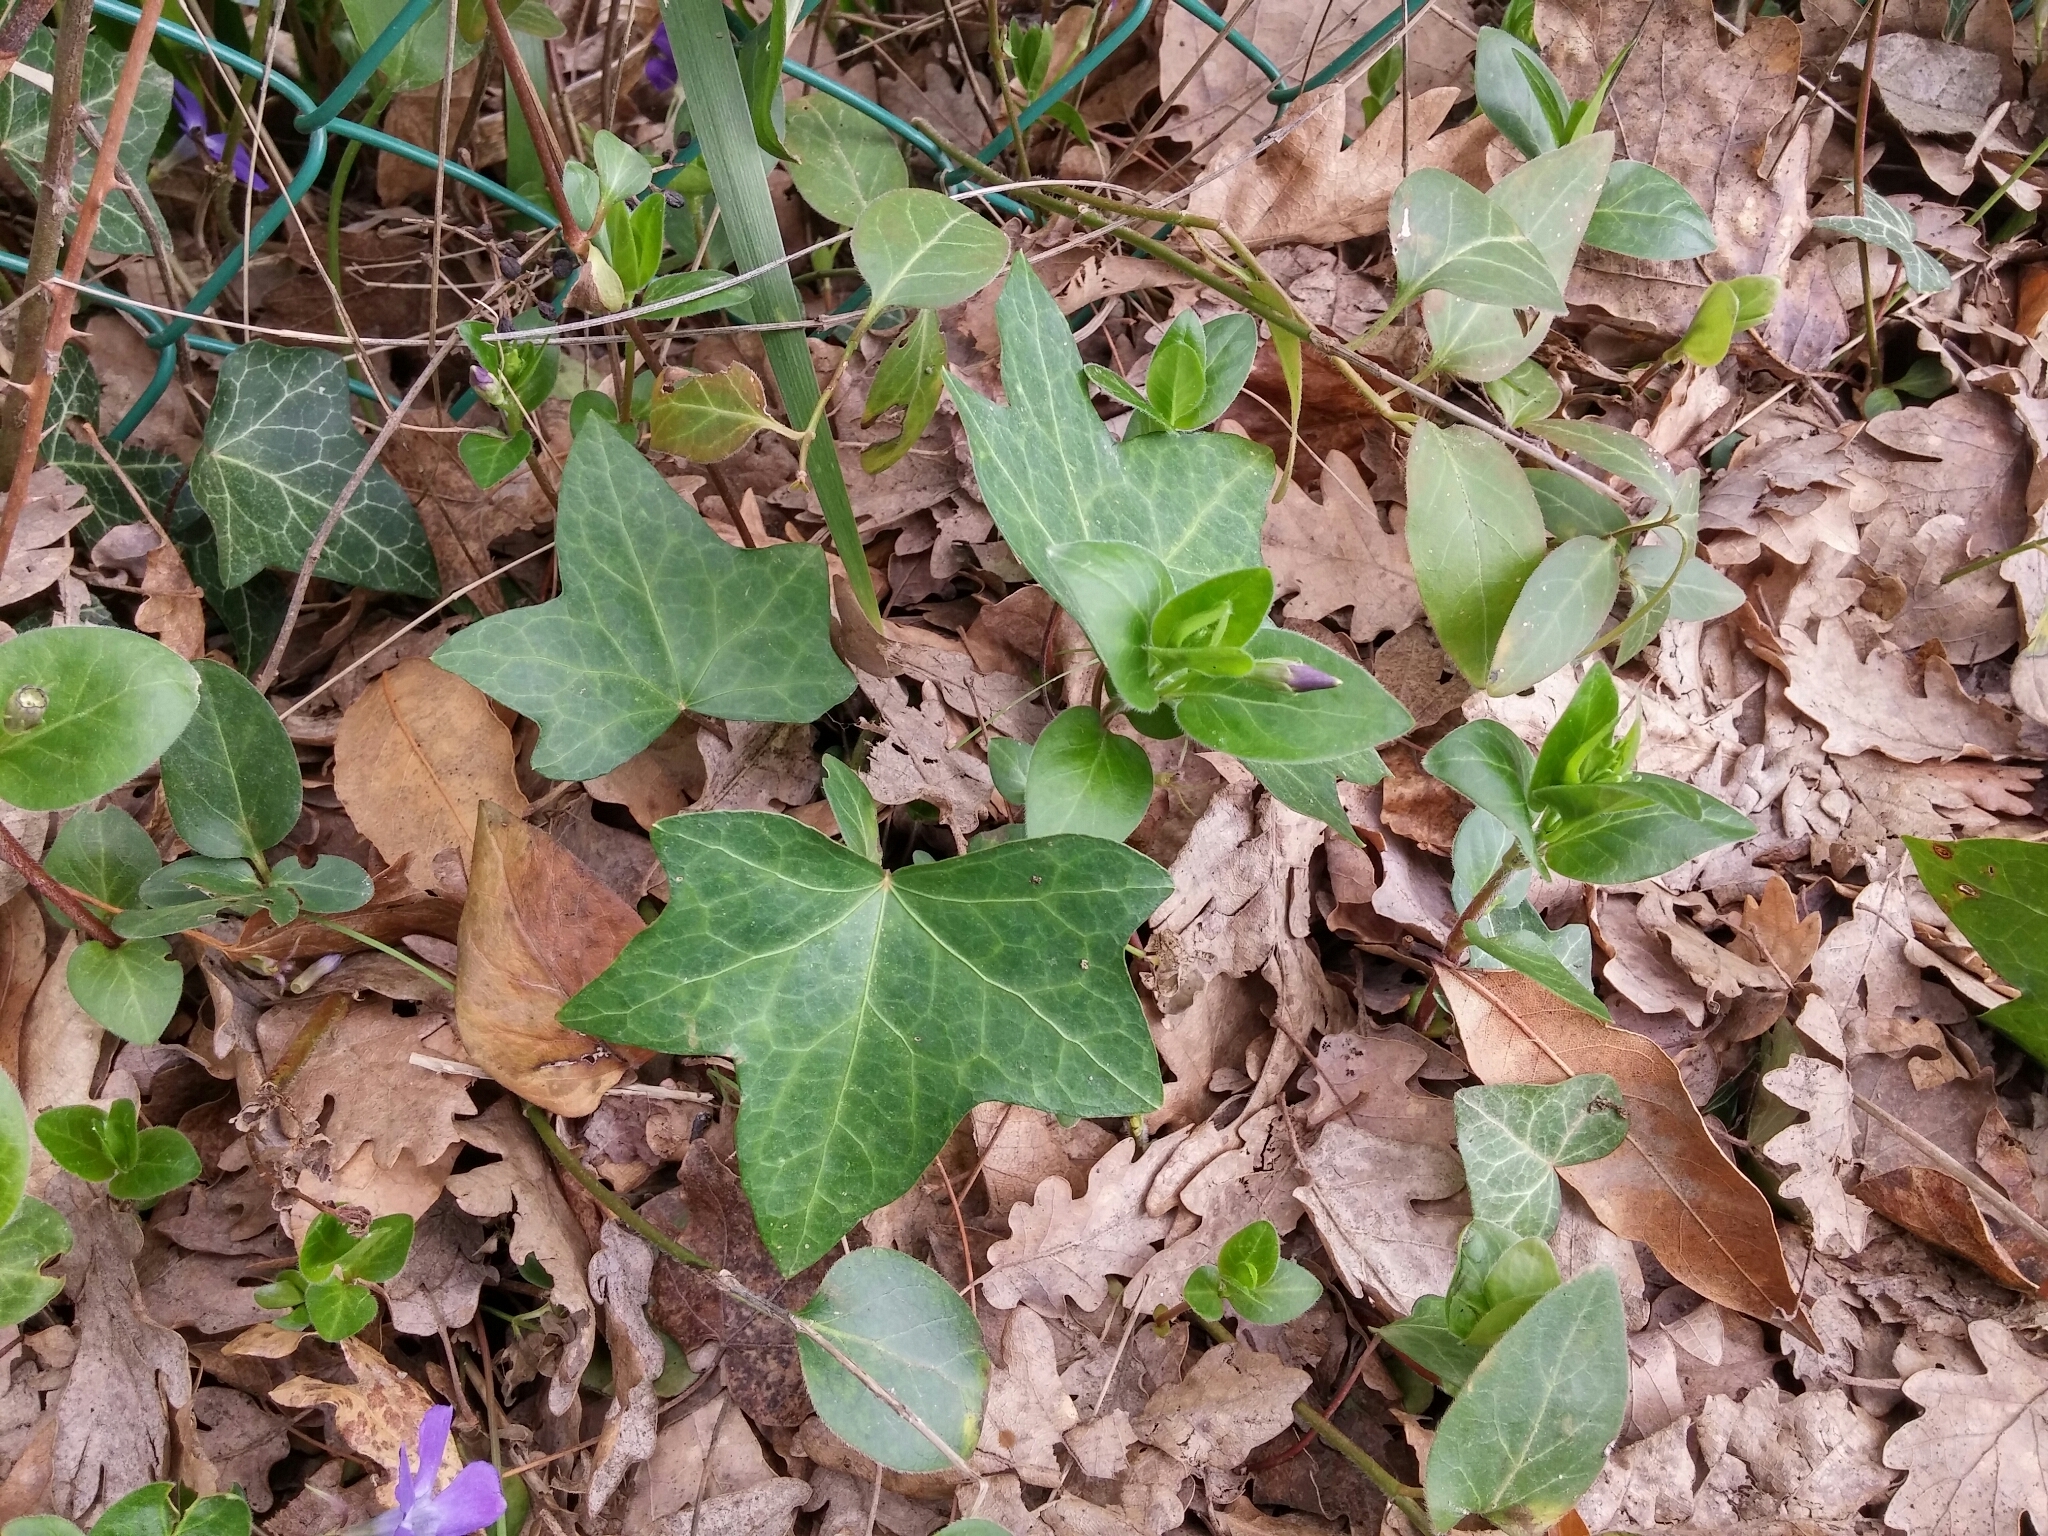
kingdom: Plantae
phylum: Tracheophyta
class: Magnoliopsida
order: Apiales
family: Araliaceae
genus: Hedera
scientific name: Hedera helix
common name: Ivy
